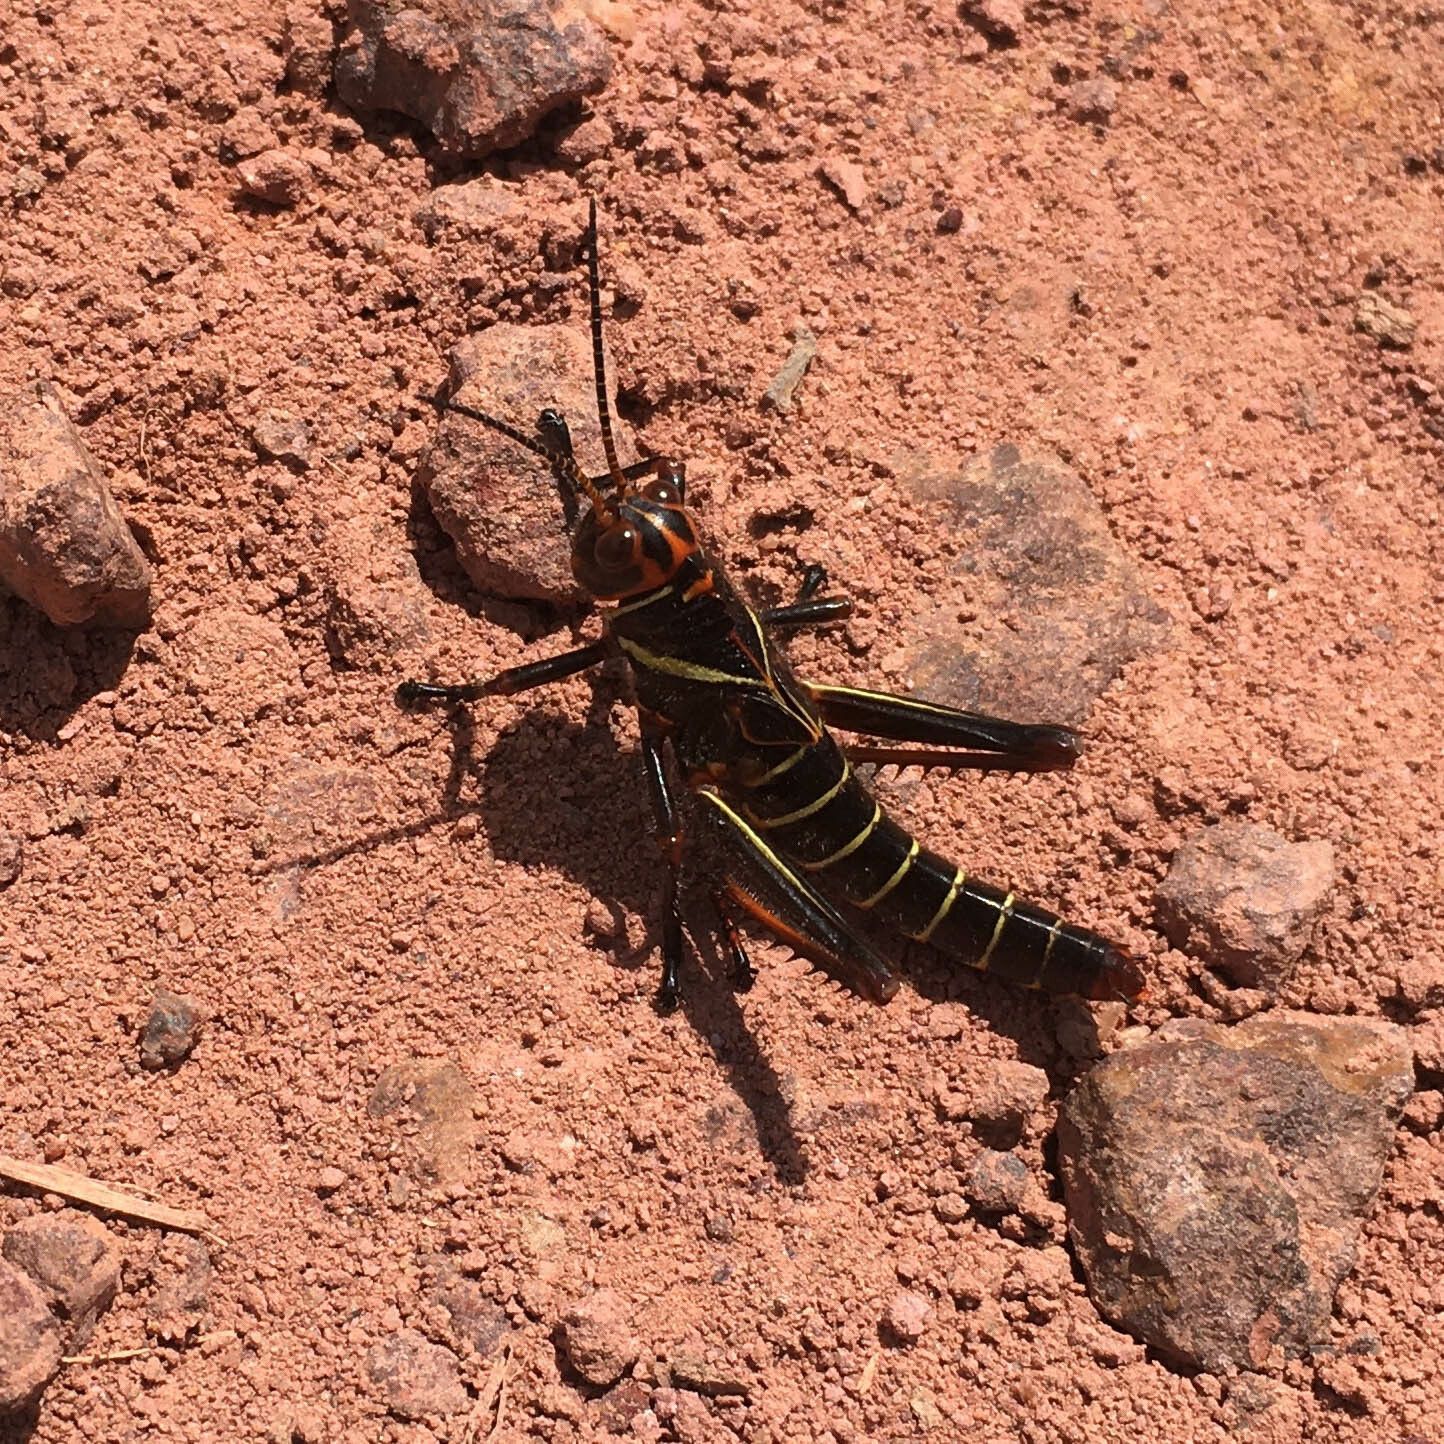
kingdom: Animalia
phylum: Arthropoda
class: Insecta
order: Orthoptera
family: Romaleidae
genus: Tropidacris
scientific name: Tropidacris collaris
